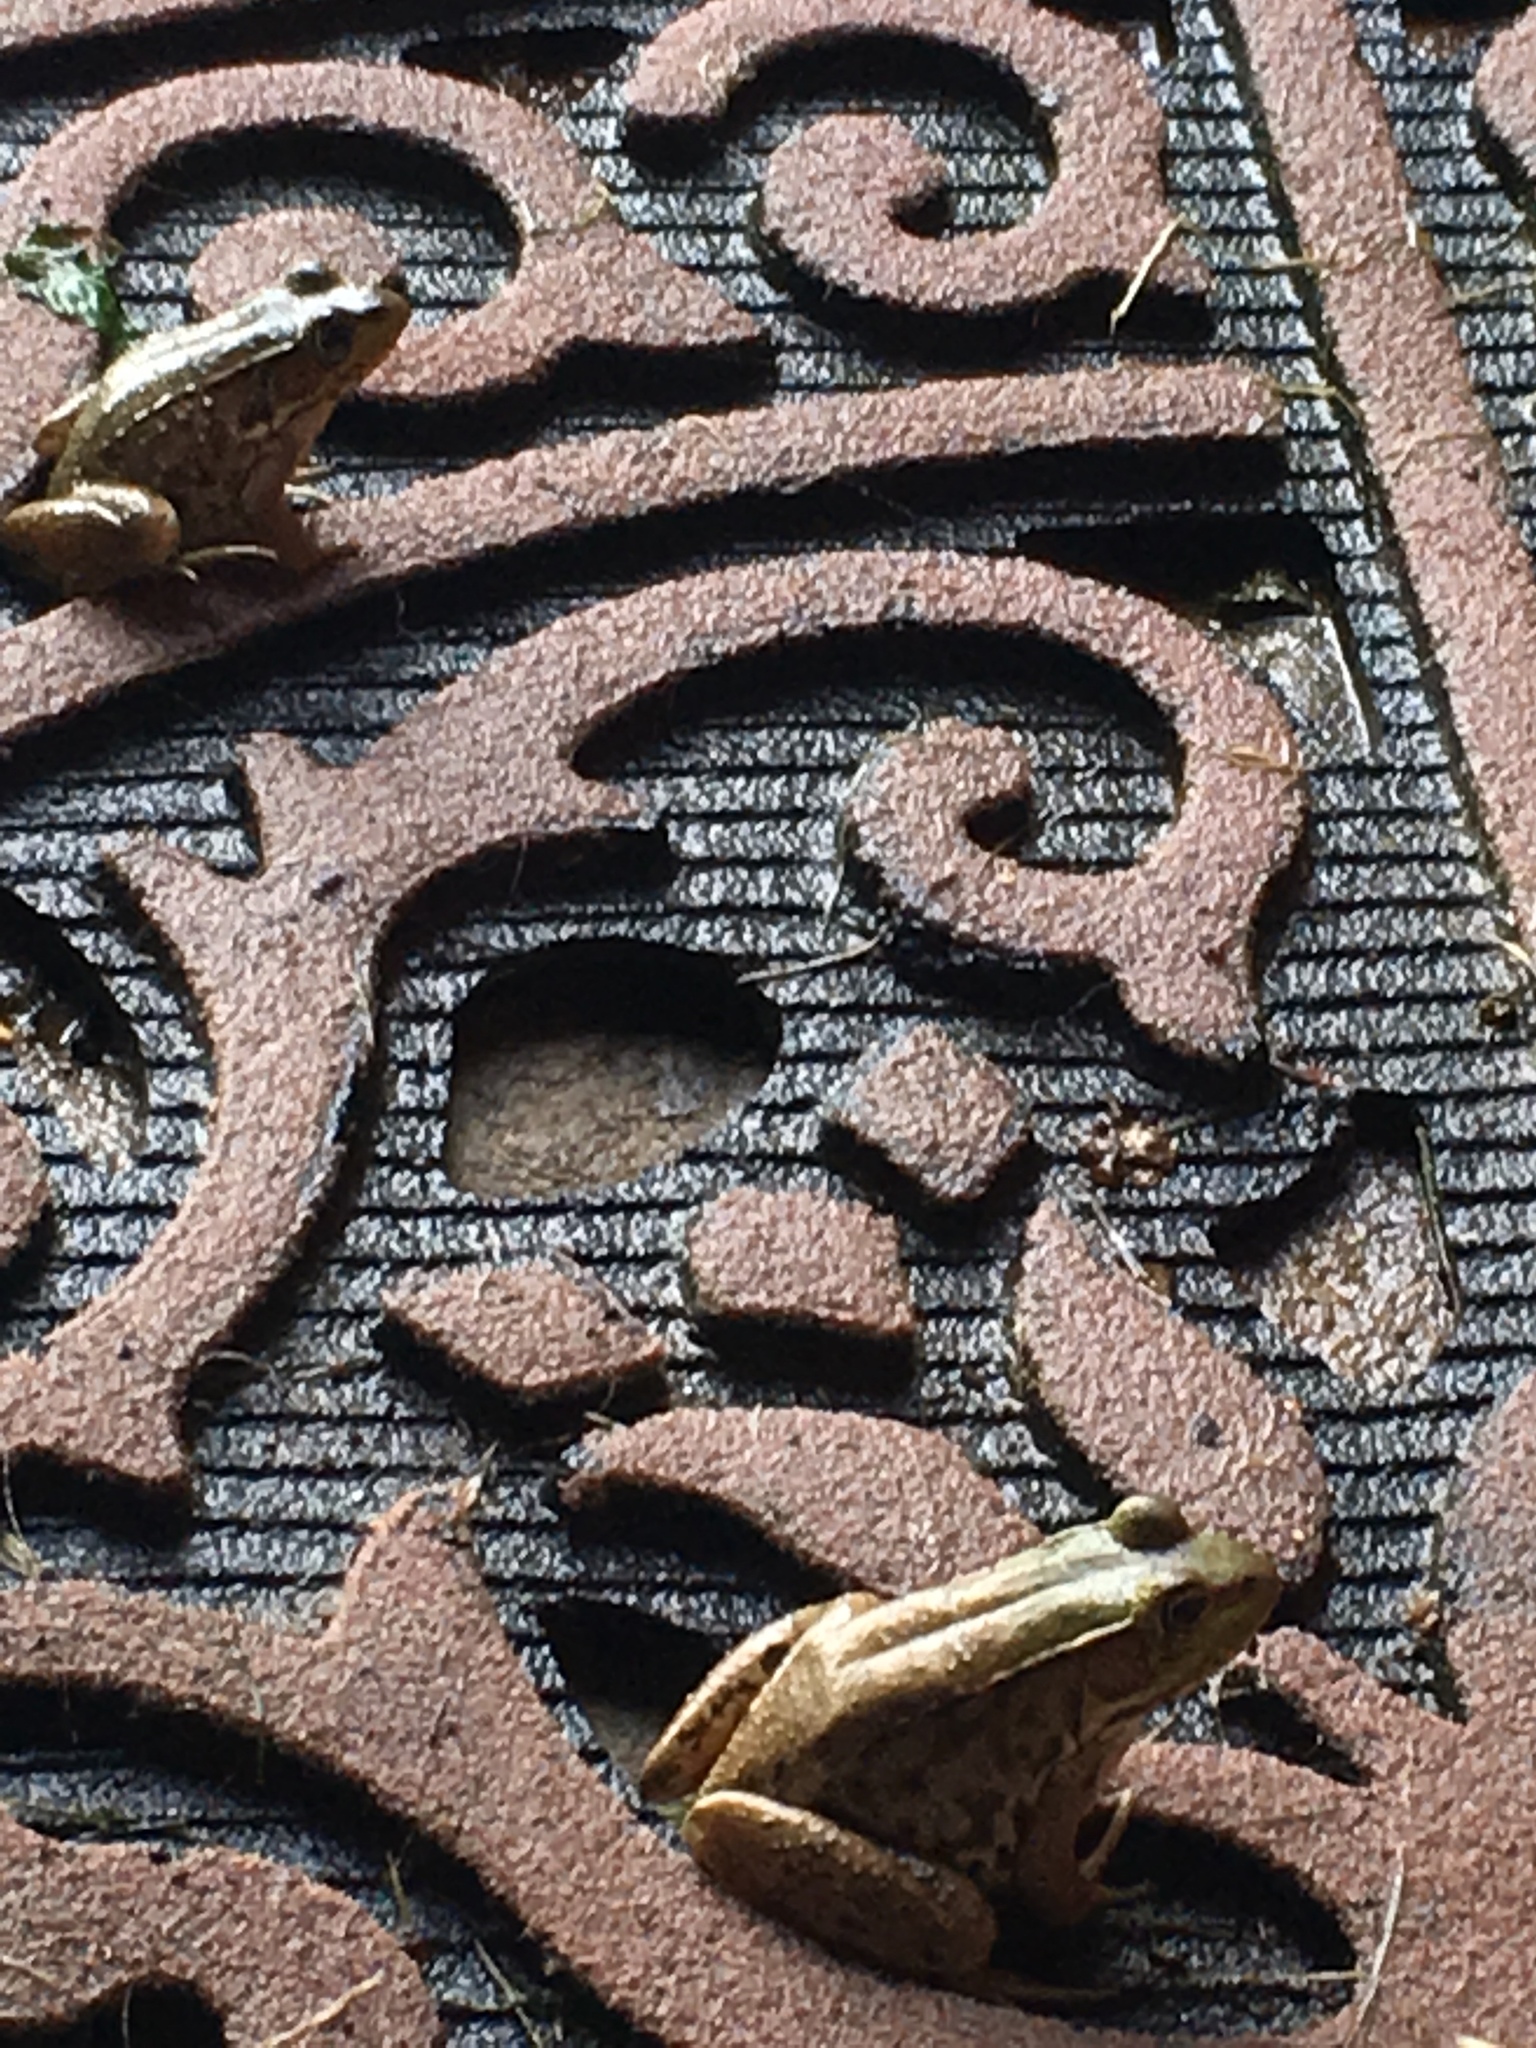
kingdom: Animalia
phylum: Chordata
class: Amphibia
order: Anura
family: Ranidae
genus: Lithobates
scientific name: Lithobates clamitans
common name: Green frog
